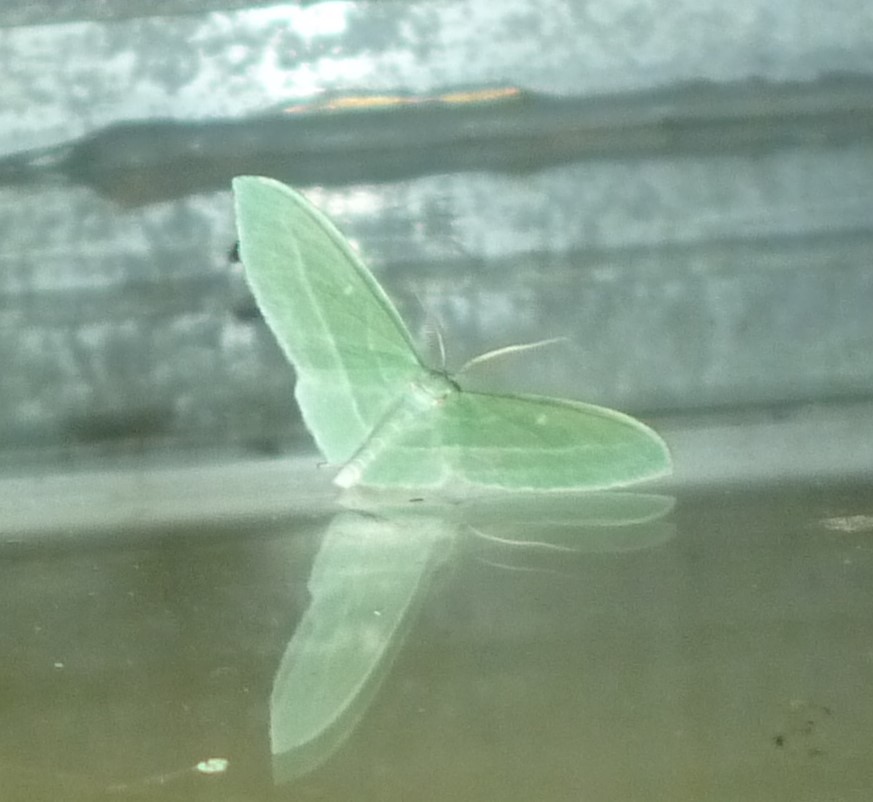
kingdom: Animalia
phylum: Arthropoda
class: Insecta
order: Lepidoptera
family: Geometridae
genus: Dyspteris
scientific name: Dyspteris abortivaria
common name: Bad-wing
